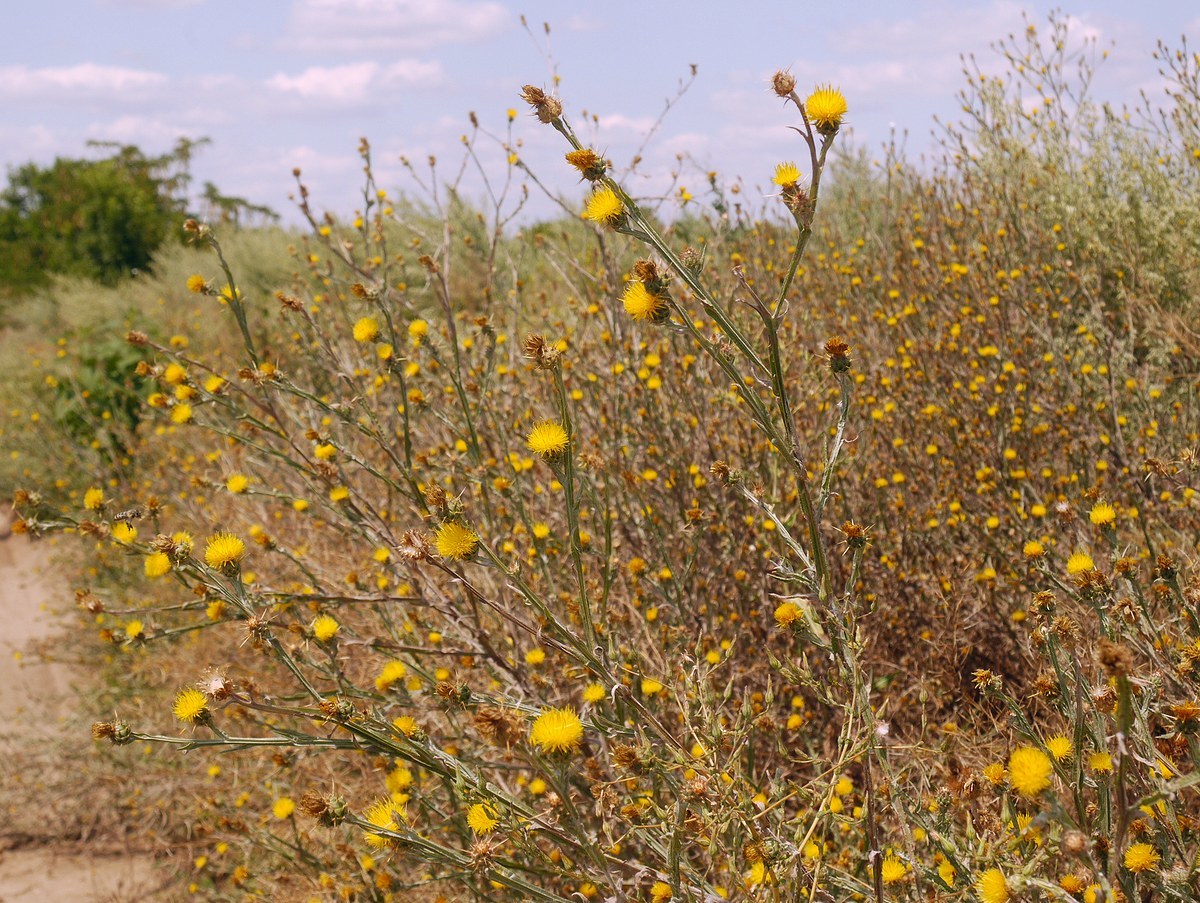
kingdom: Plantae
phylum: Tracheophyta
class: Magnoliopsida
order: Asterales
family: Asteraceae
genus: Centaurea
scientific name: Centaurea solstitialis
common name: Yellow star-thistle
